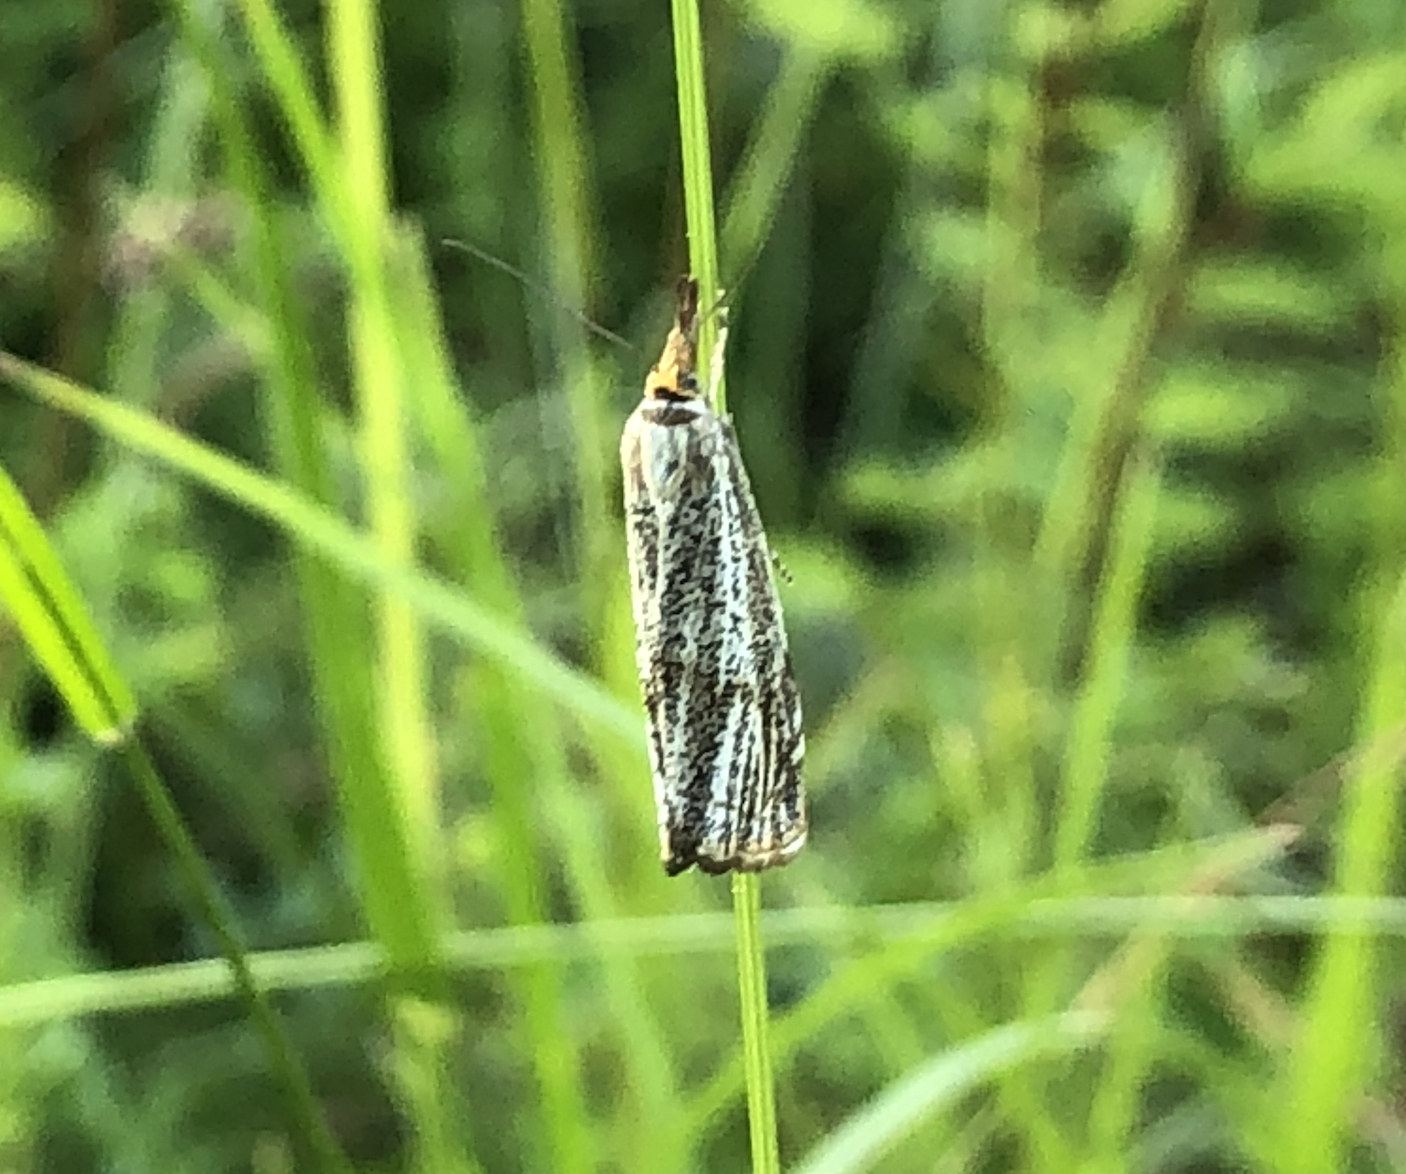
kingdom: Animalia
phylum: Arthropoda
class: Insecta
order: Lepidoptera
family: Crambidae
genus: Thisanotia
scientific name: Thisanotia chrysonuchella
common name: Powdered grass-veneer
